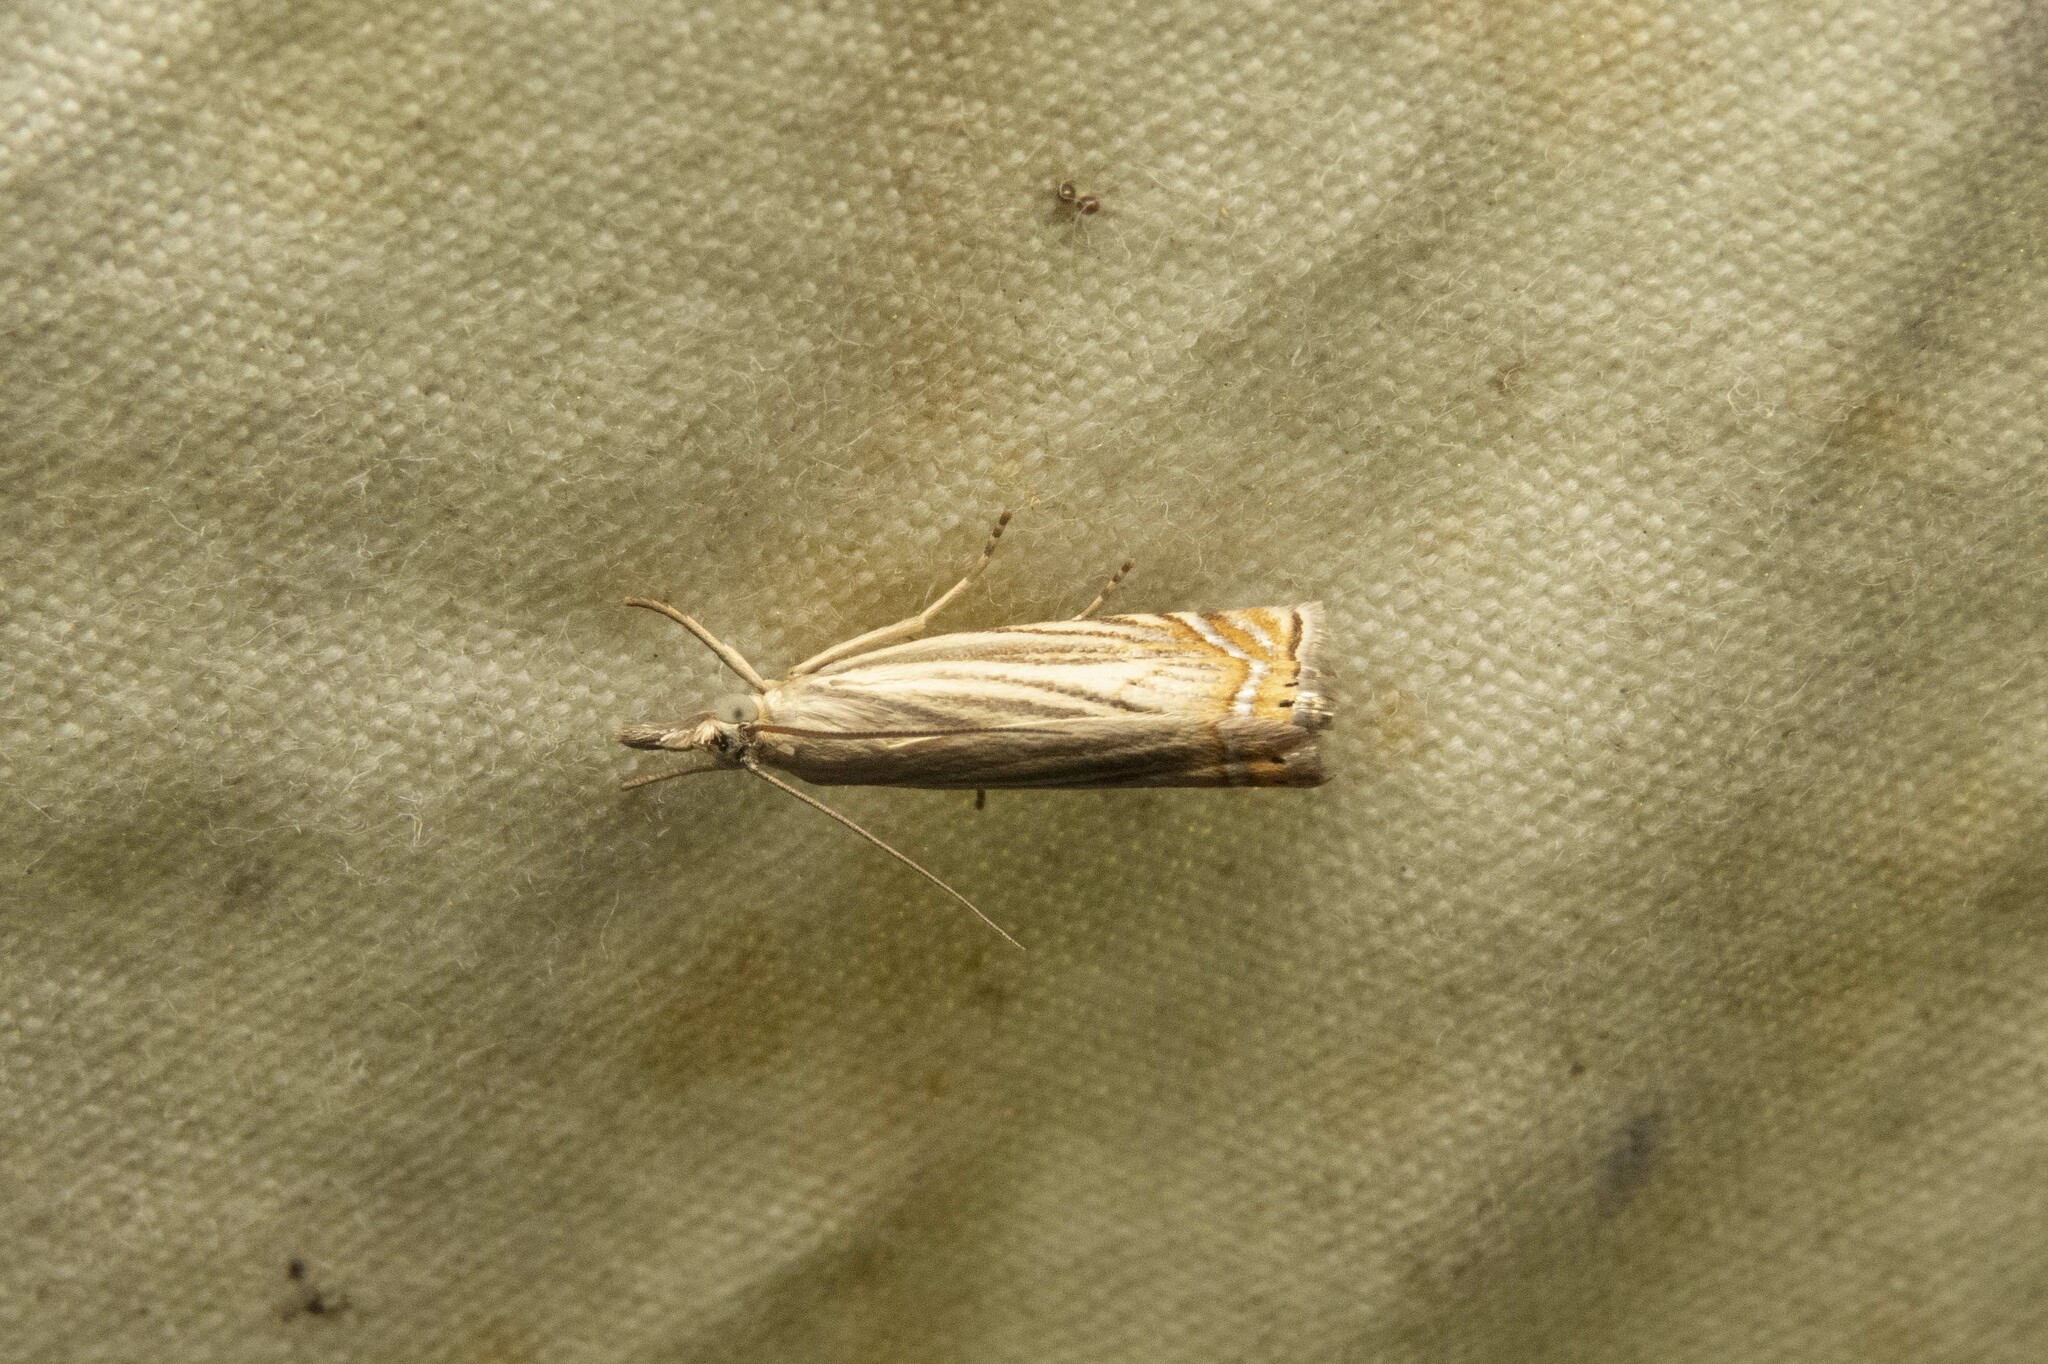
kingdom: Animalia
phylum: Arthropoda
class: Insecta
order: Lepidoptera
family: Crambidae
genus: Chrysoteuchia
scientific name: Chrysoteuchia topiarius
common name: Topiary grass-veneer
